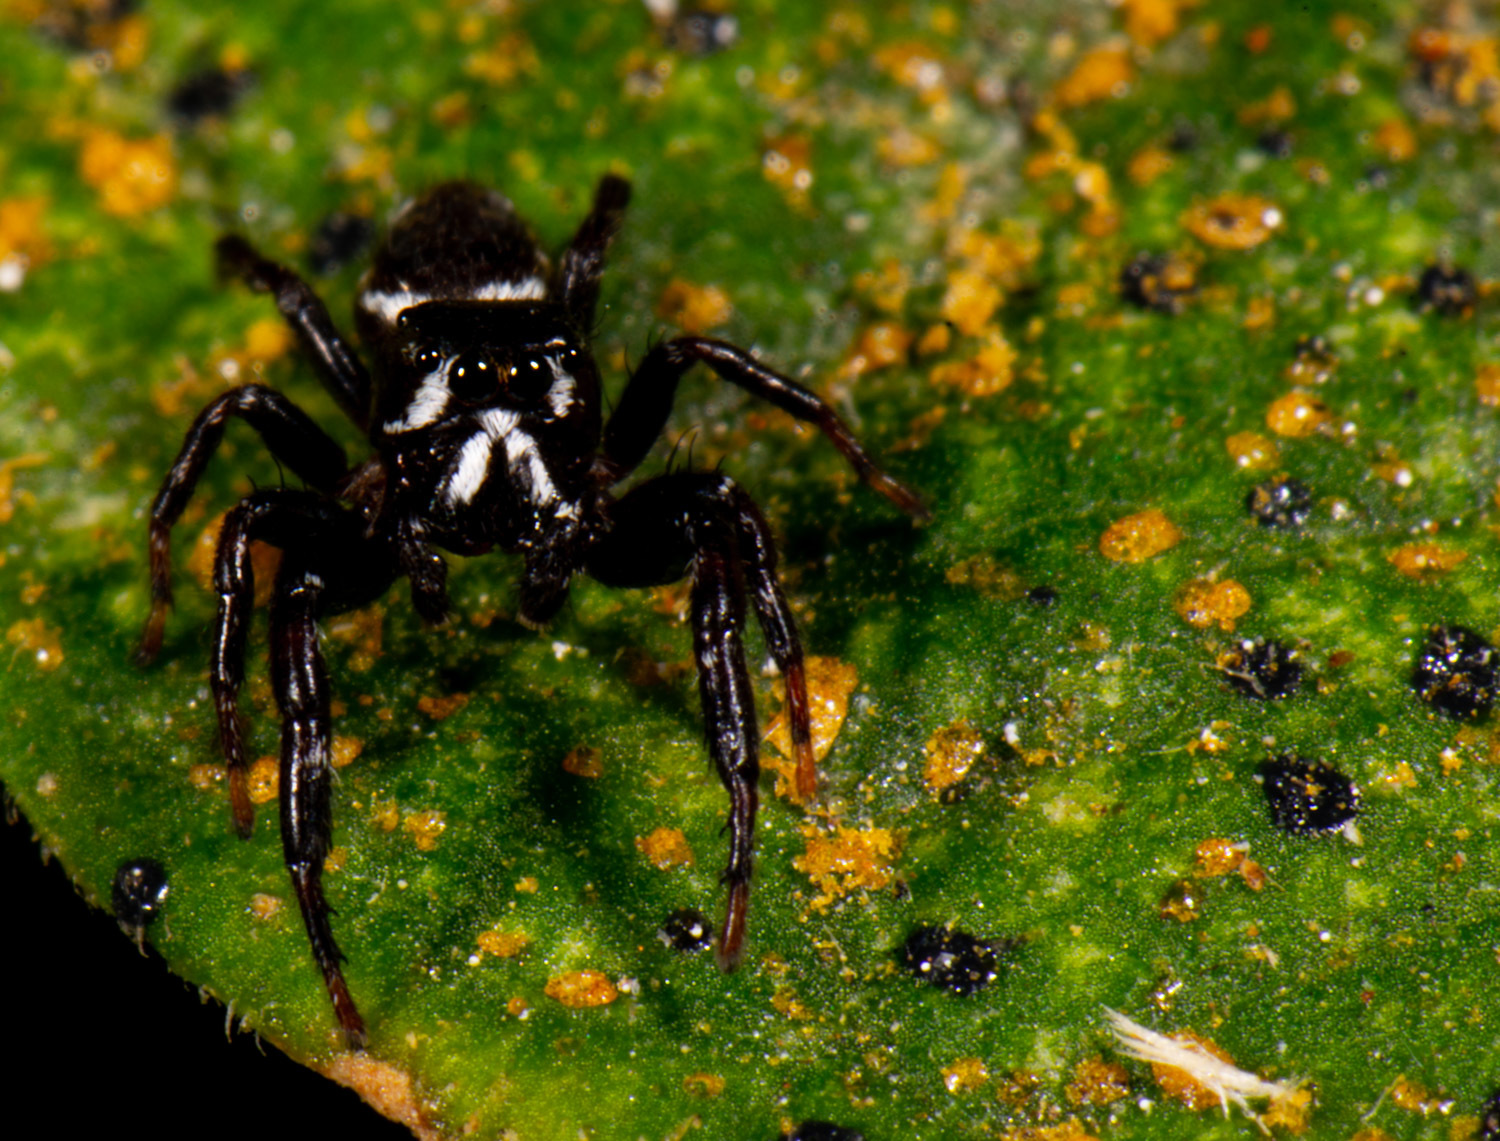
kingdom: Animalia
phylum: Arthropoda
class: Arachnida
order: Araneae
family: Salticidae
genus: Metaphidippus
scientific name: Metaphidippus manni
